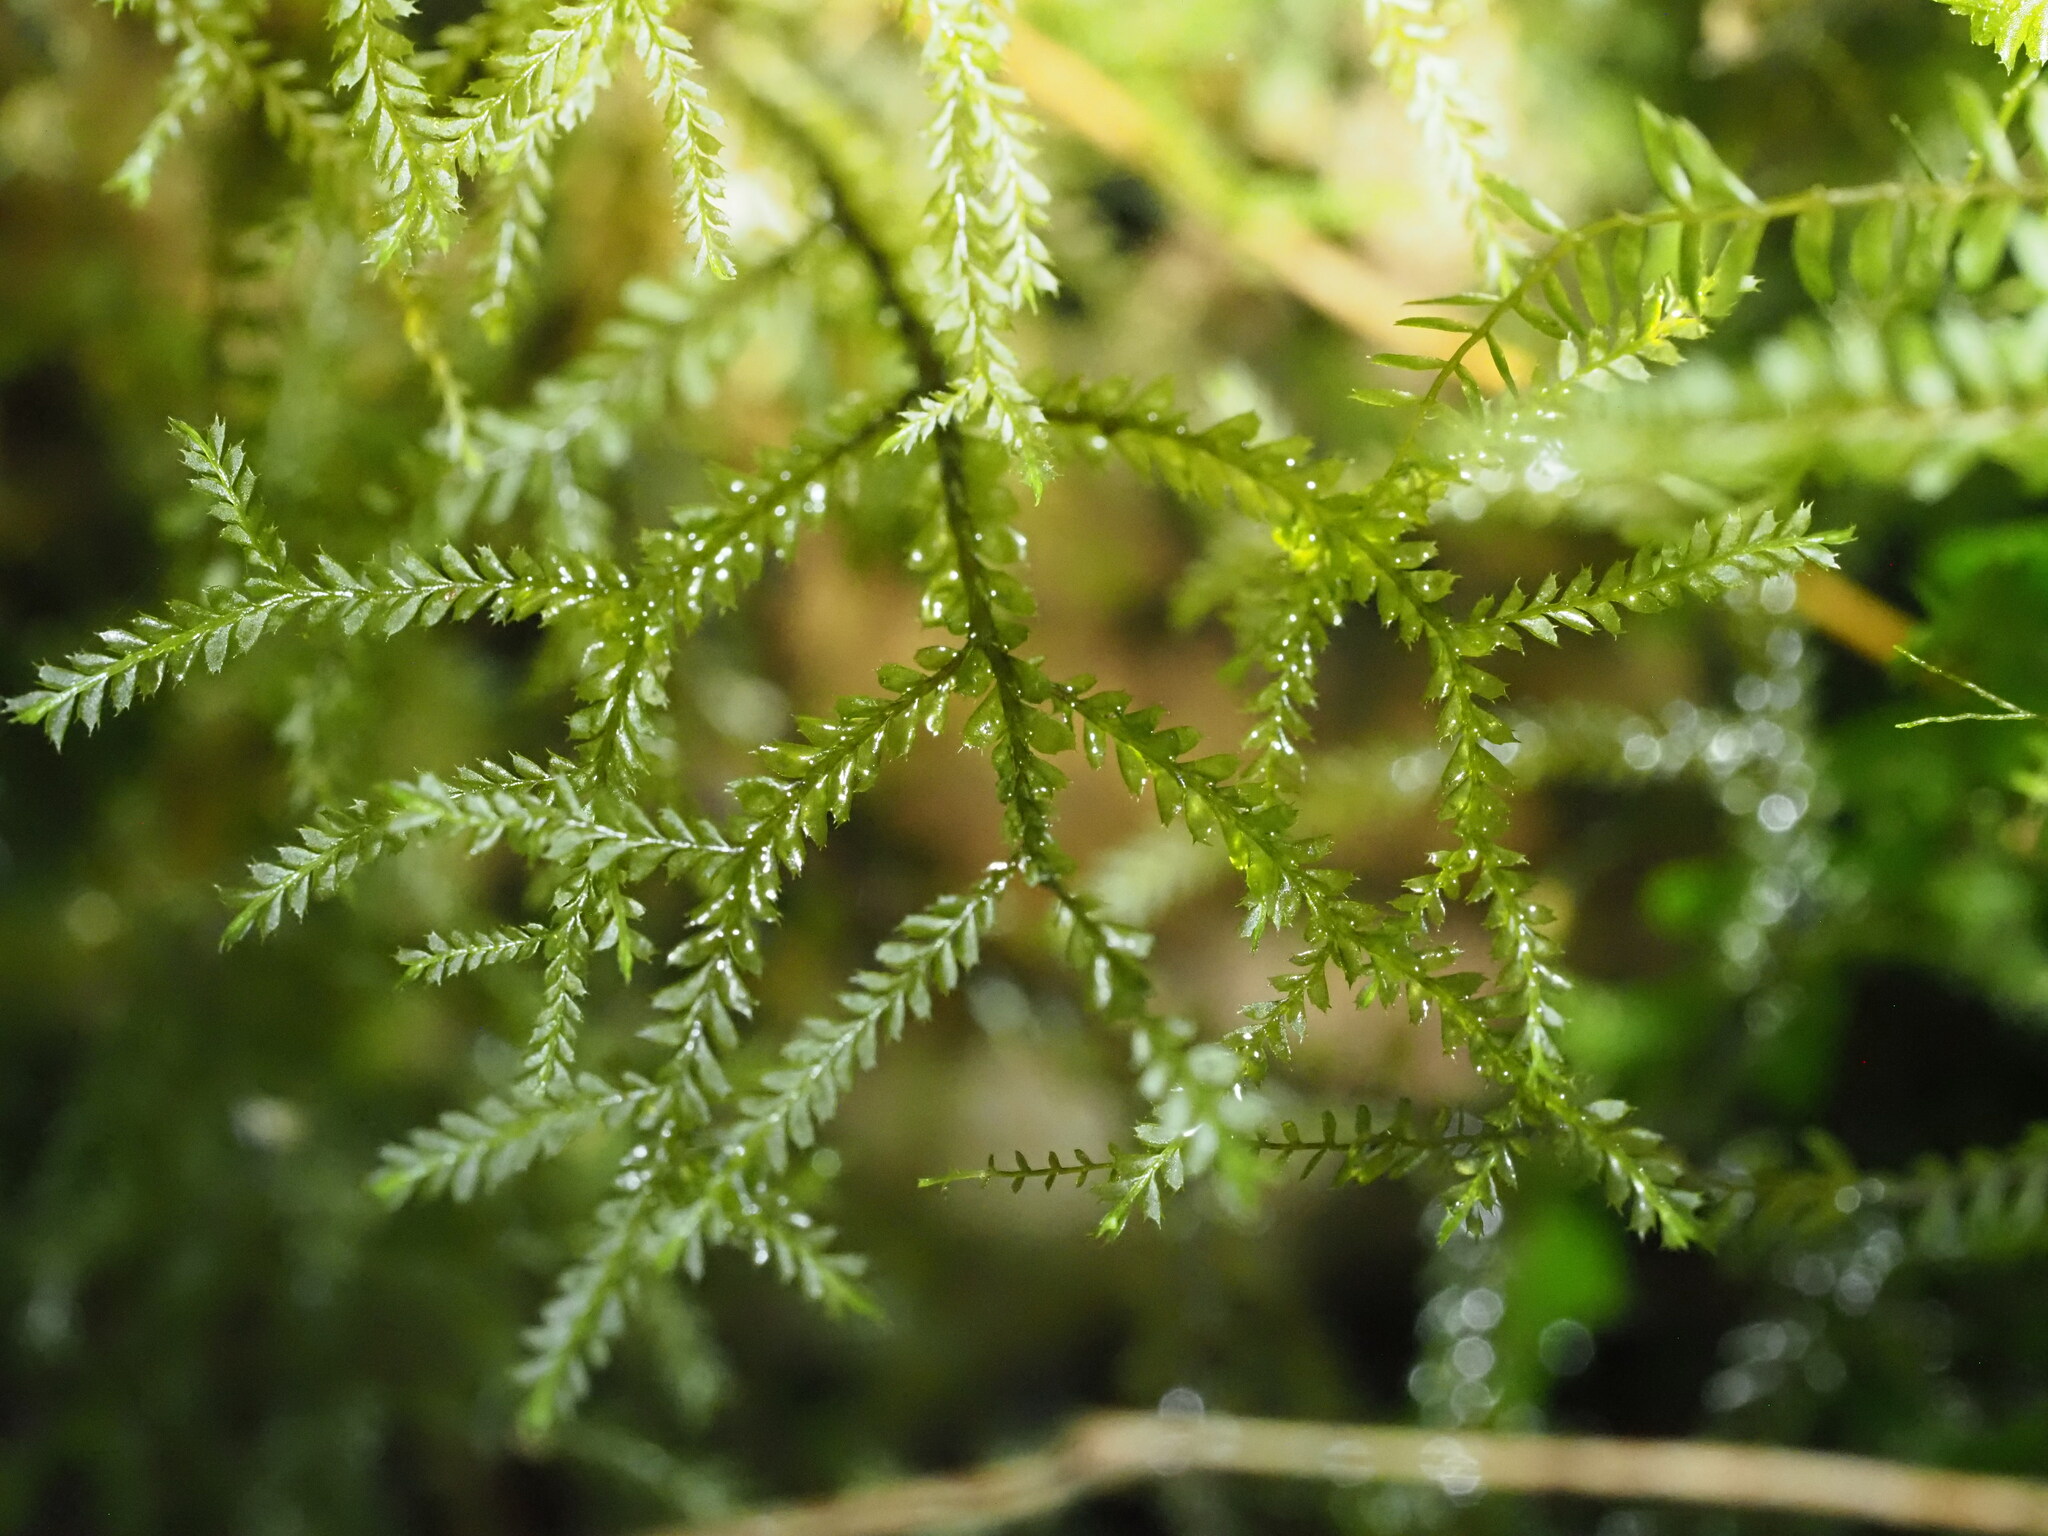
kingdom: Plantae
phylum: Marchantiophyta
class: Jungermanniopsida
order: Jungermanniales
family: Plagiochilaceae
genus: Plagiochila
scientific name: Plagiochila mauiensis
